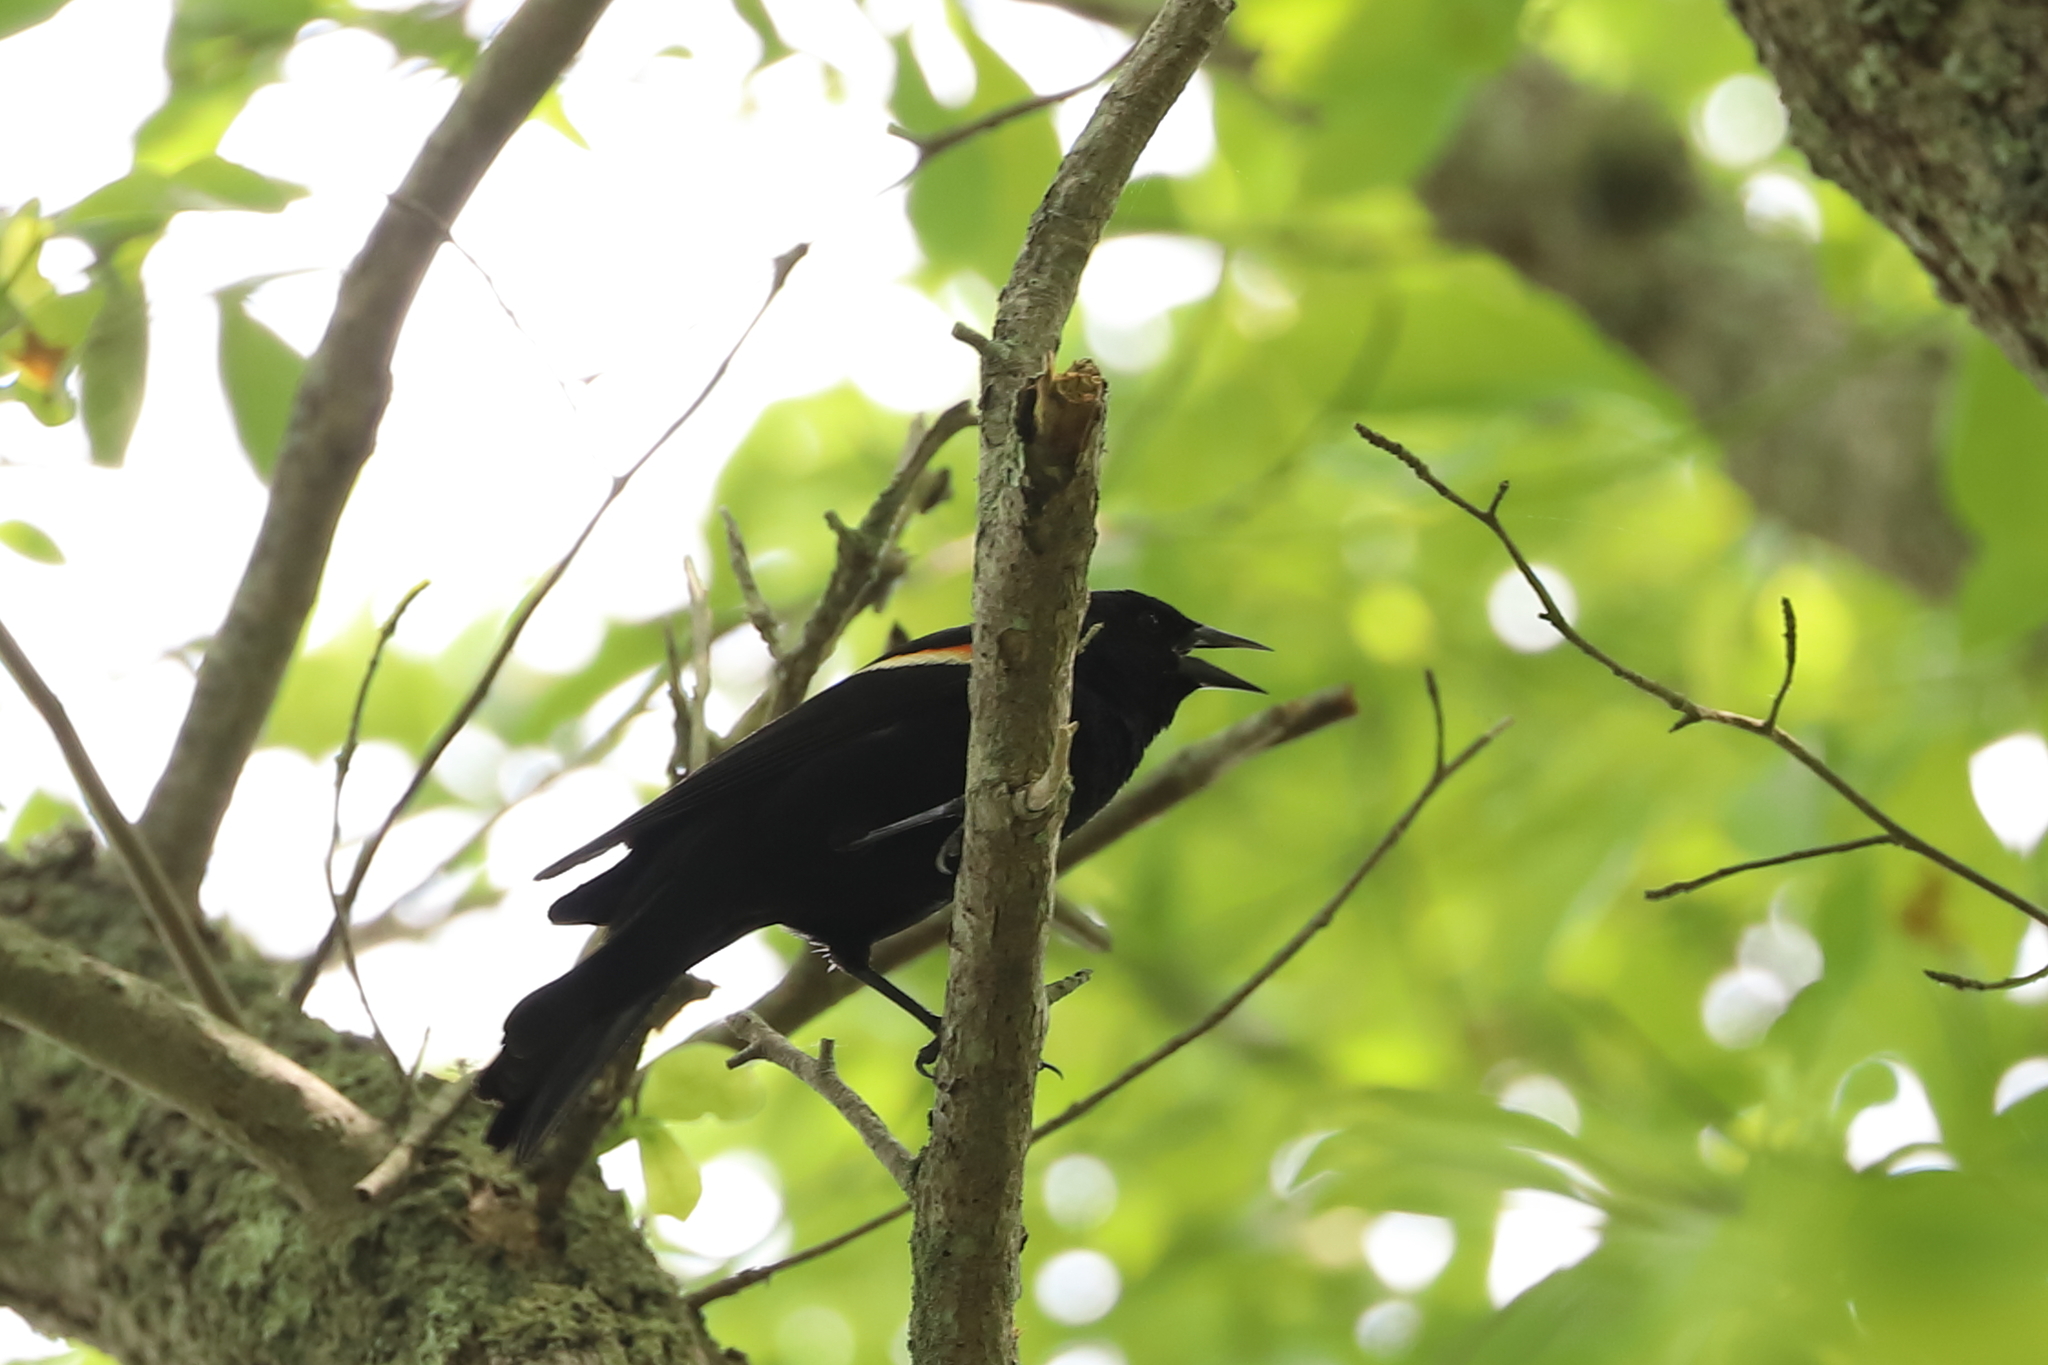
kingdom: Animalia
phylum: Chordata
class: Aves
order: Passeriformes
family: Icteridae
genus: Agelaius
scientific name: Agelaius phoeniceus
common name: Red-winged blackbird
